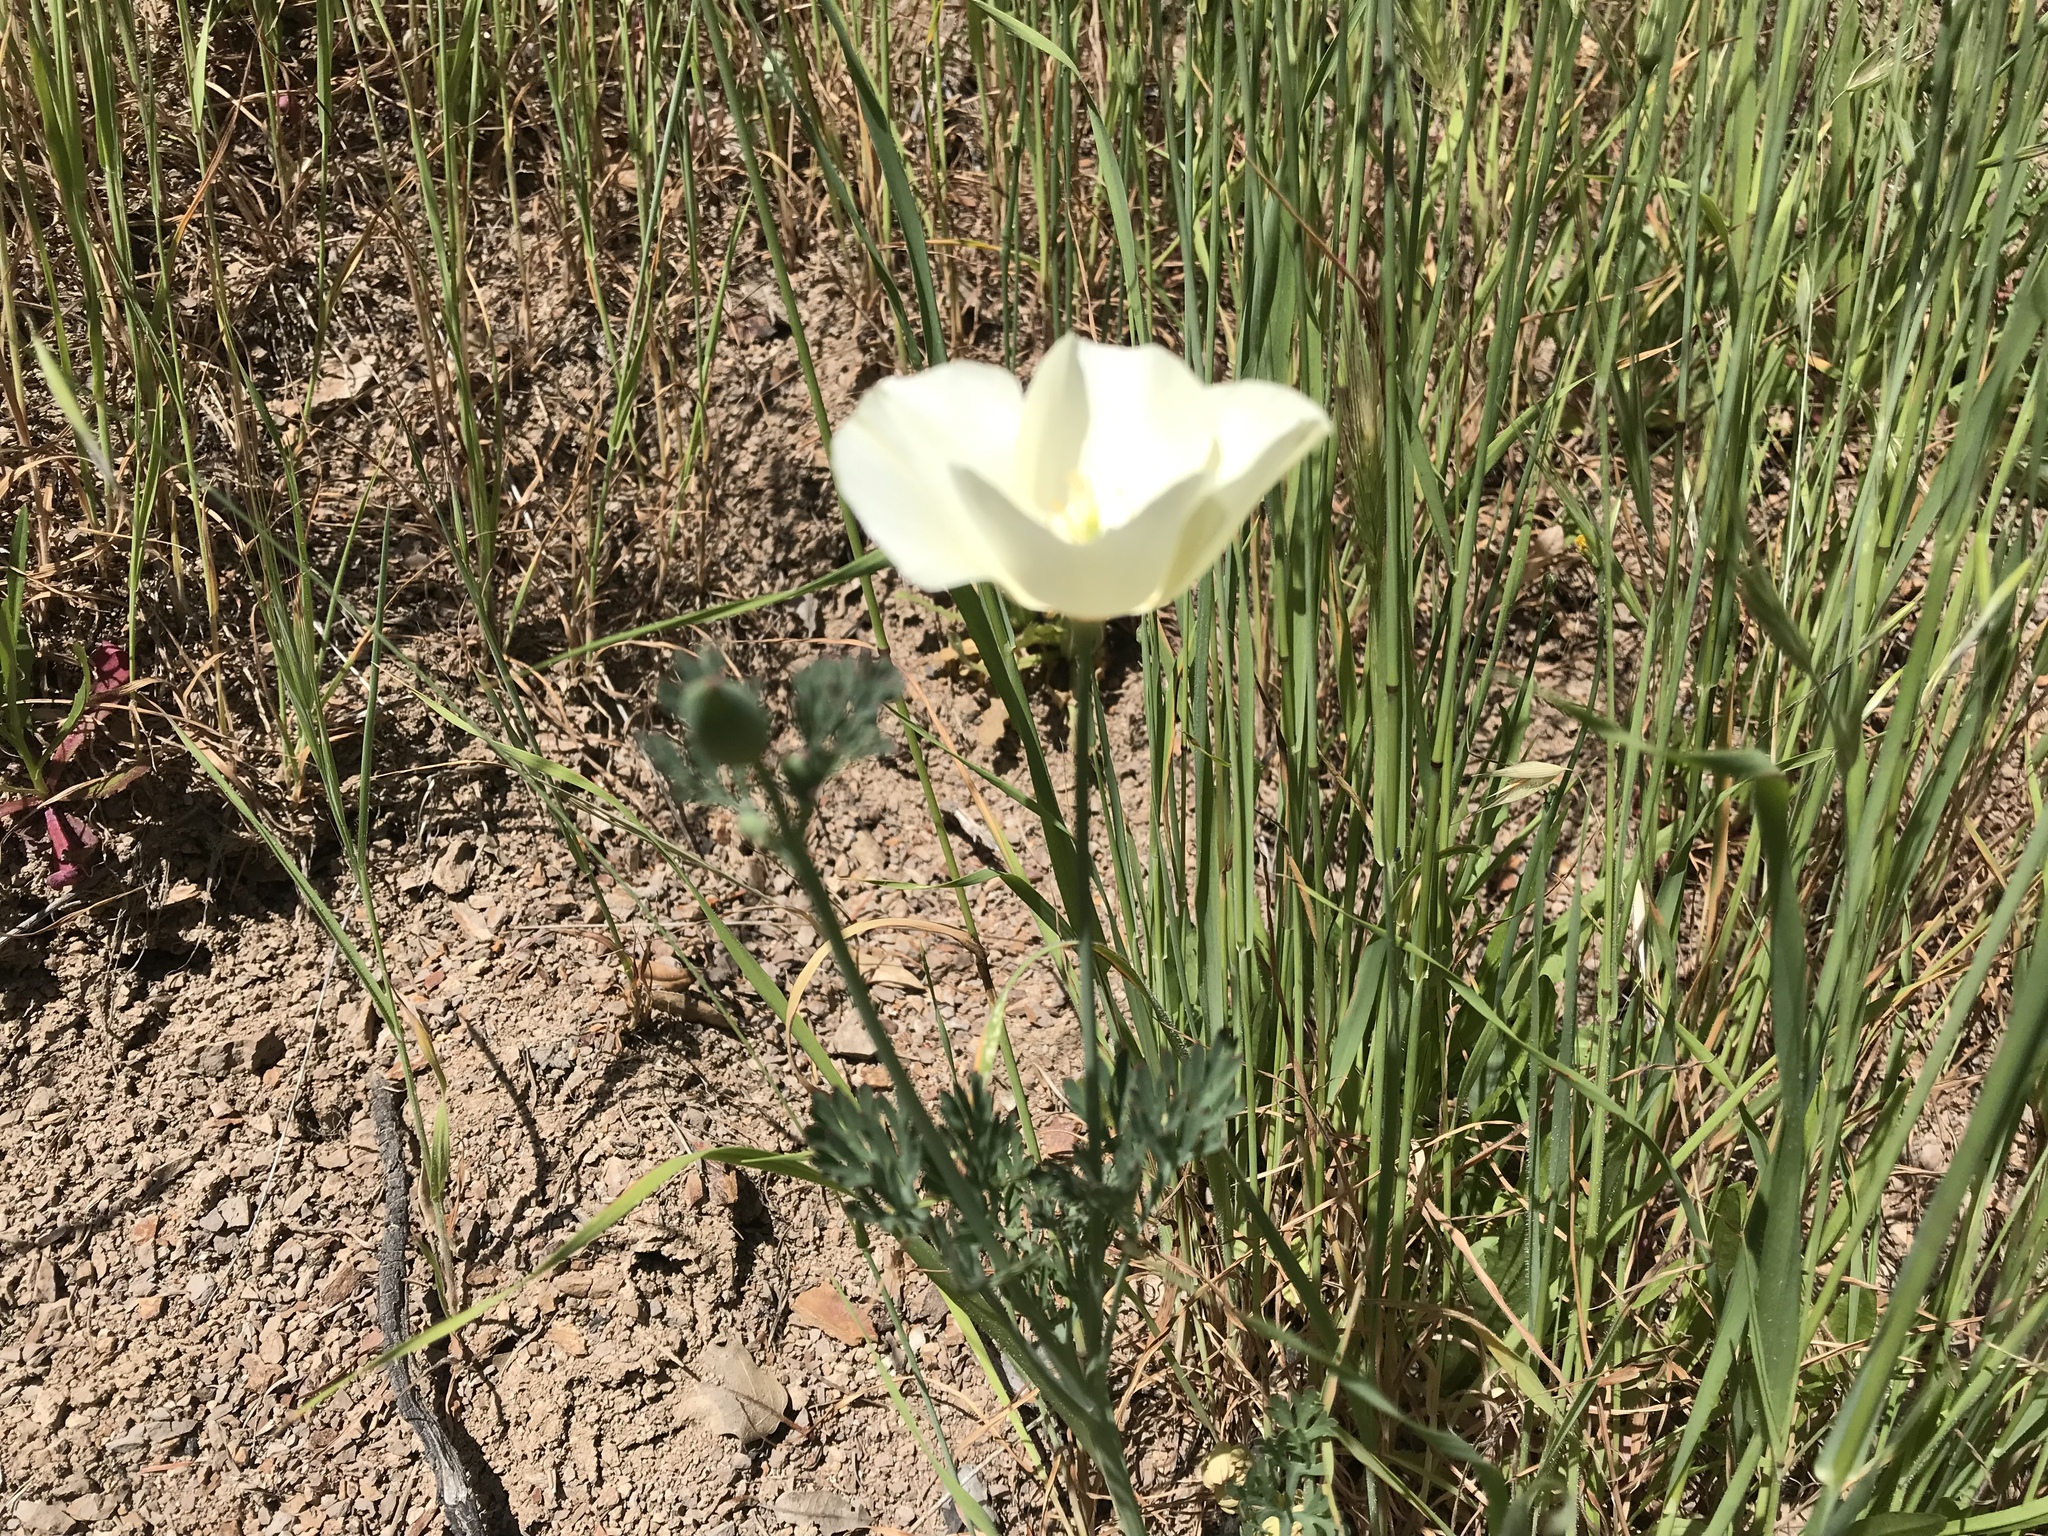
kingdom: Plantae
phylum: Tracheophyta
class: Magnoliopsida
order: Ranunculales
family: Papaveraceae
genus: Eschscholzia
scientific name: Eschscholzia californica
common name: California poppy
